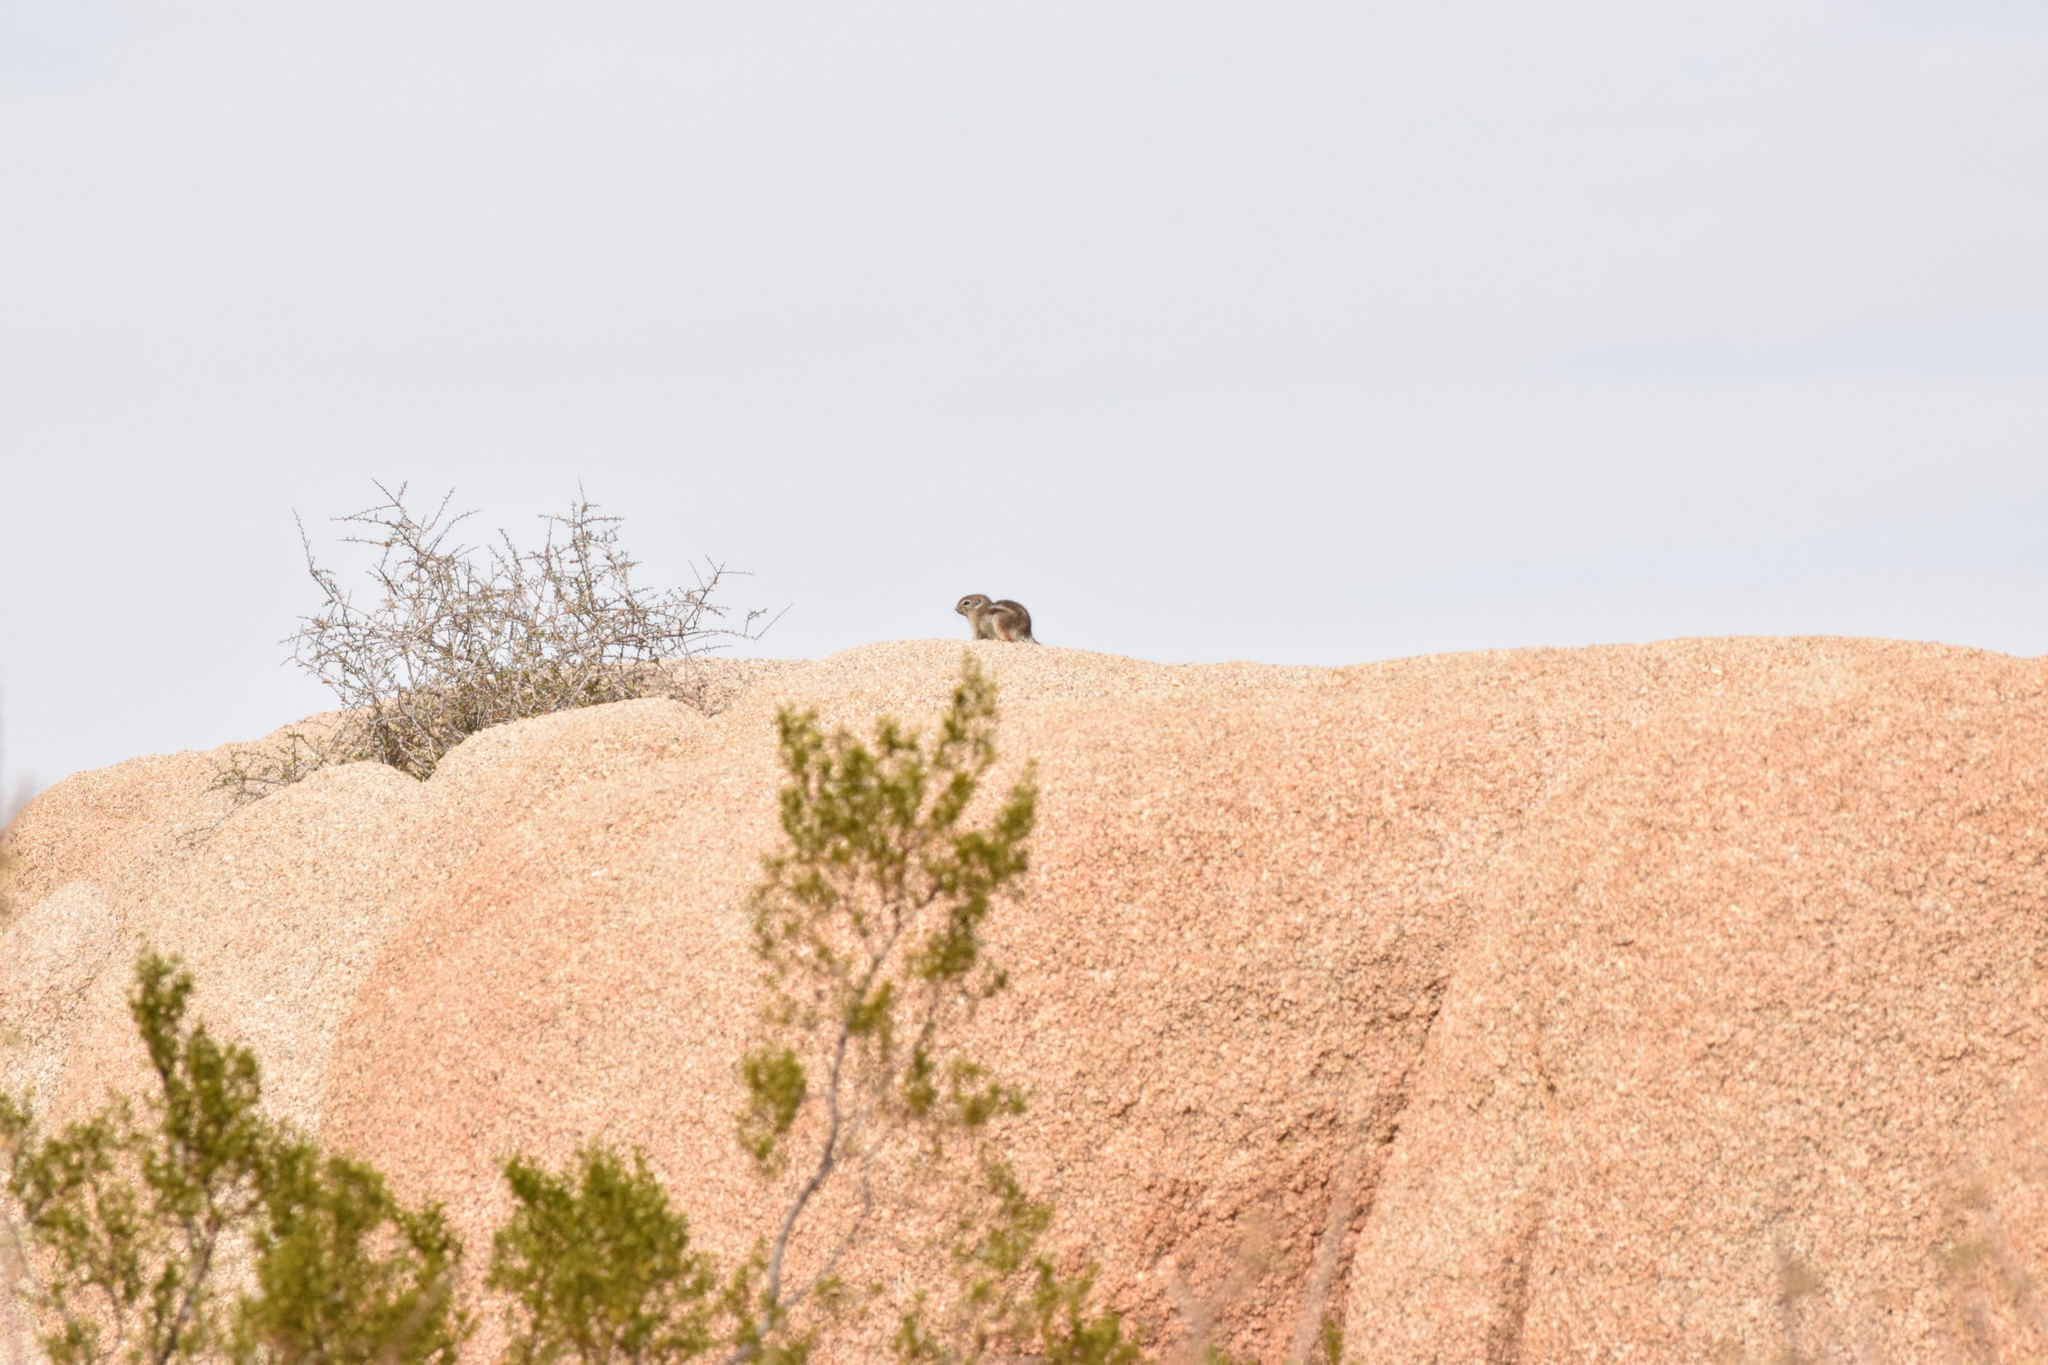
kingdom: Animalia
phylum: Chordata
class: Mammalia
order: Rodentia
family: Sciuridae
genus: Ammospermophilus
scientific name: Ammospermophilus leucurus
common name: White-tailed antelope squirrel
